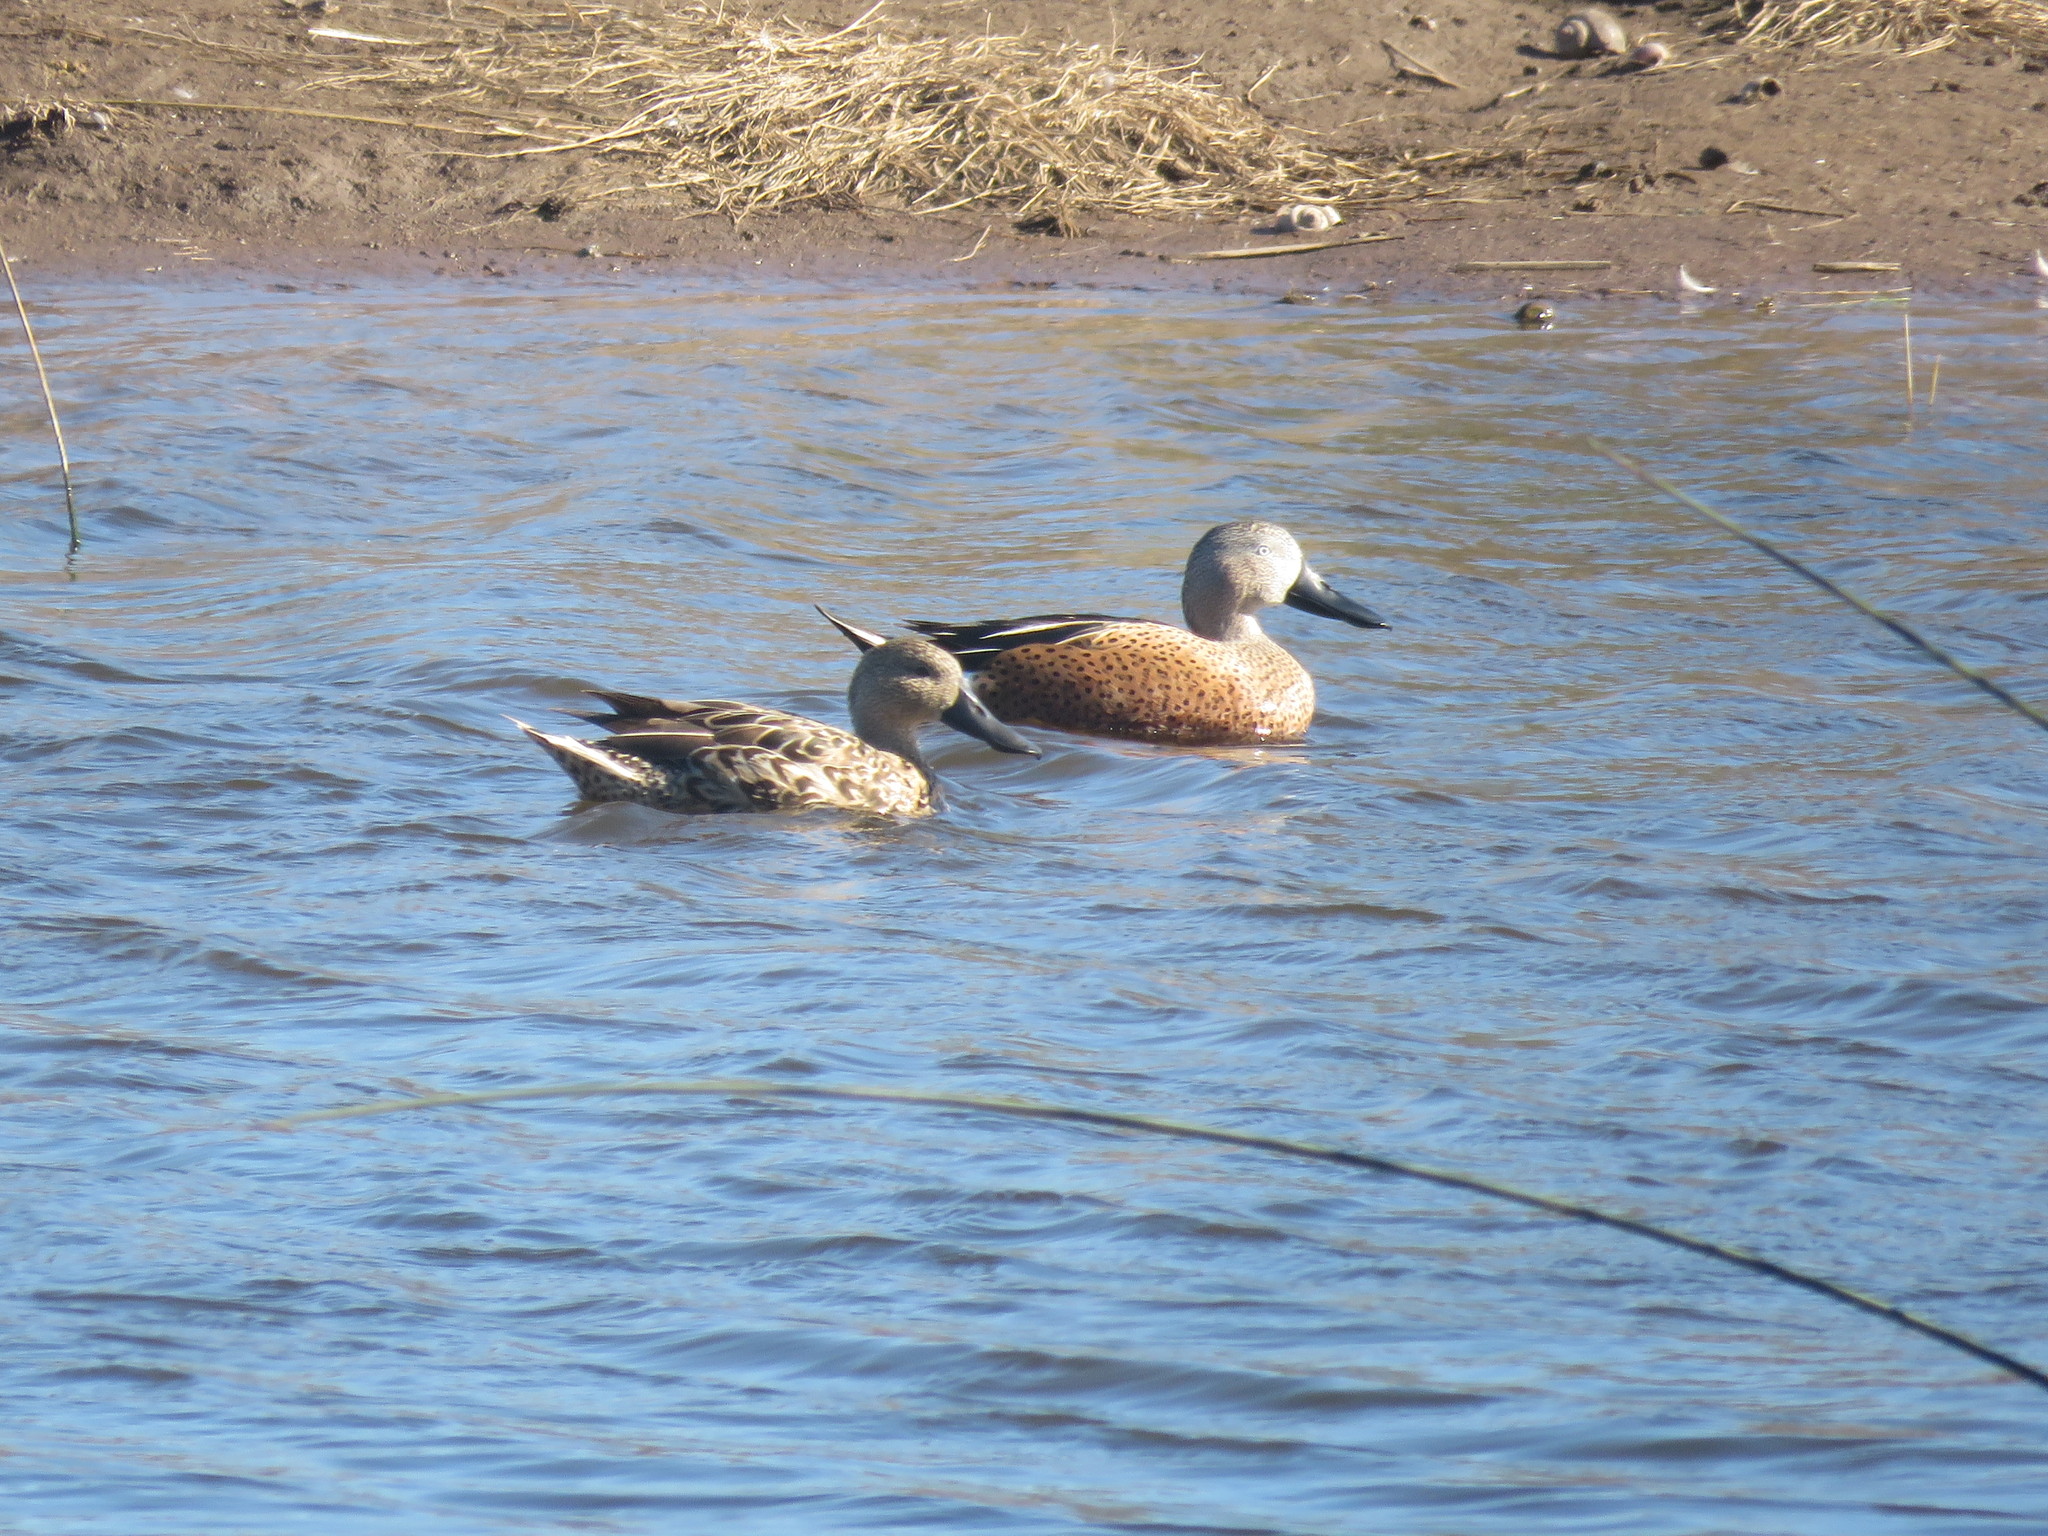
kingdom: Animalia
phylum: Chordata
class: Aves
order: Anseriformes
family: Anatidae
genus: Spatula
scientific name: Spatula platalea
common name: Red shoveler
